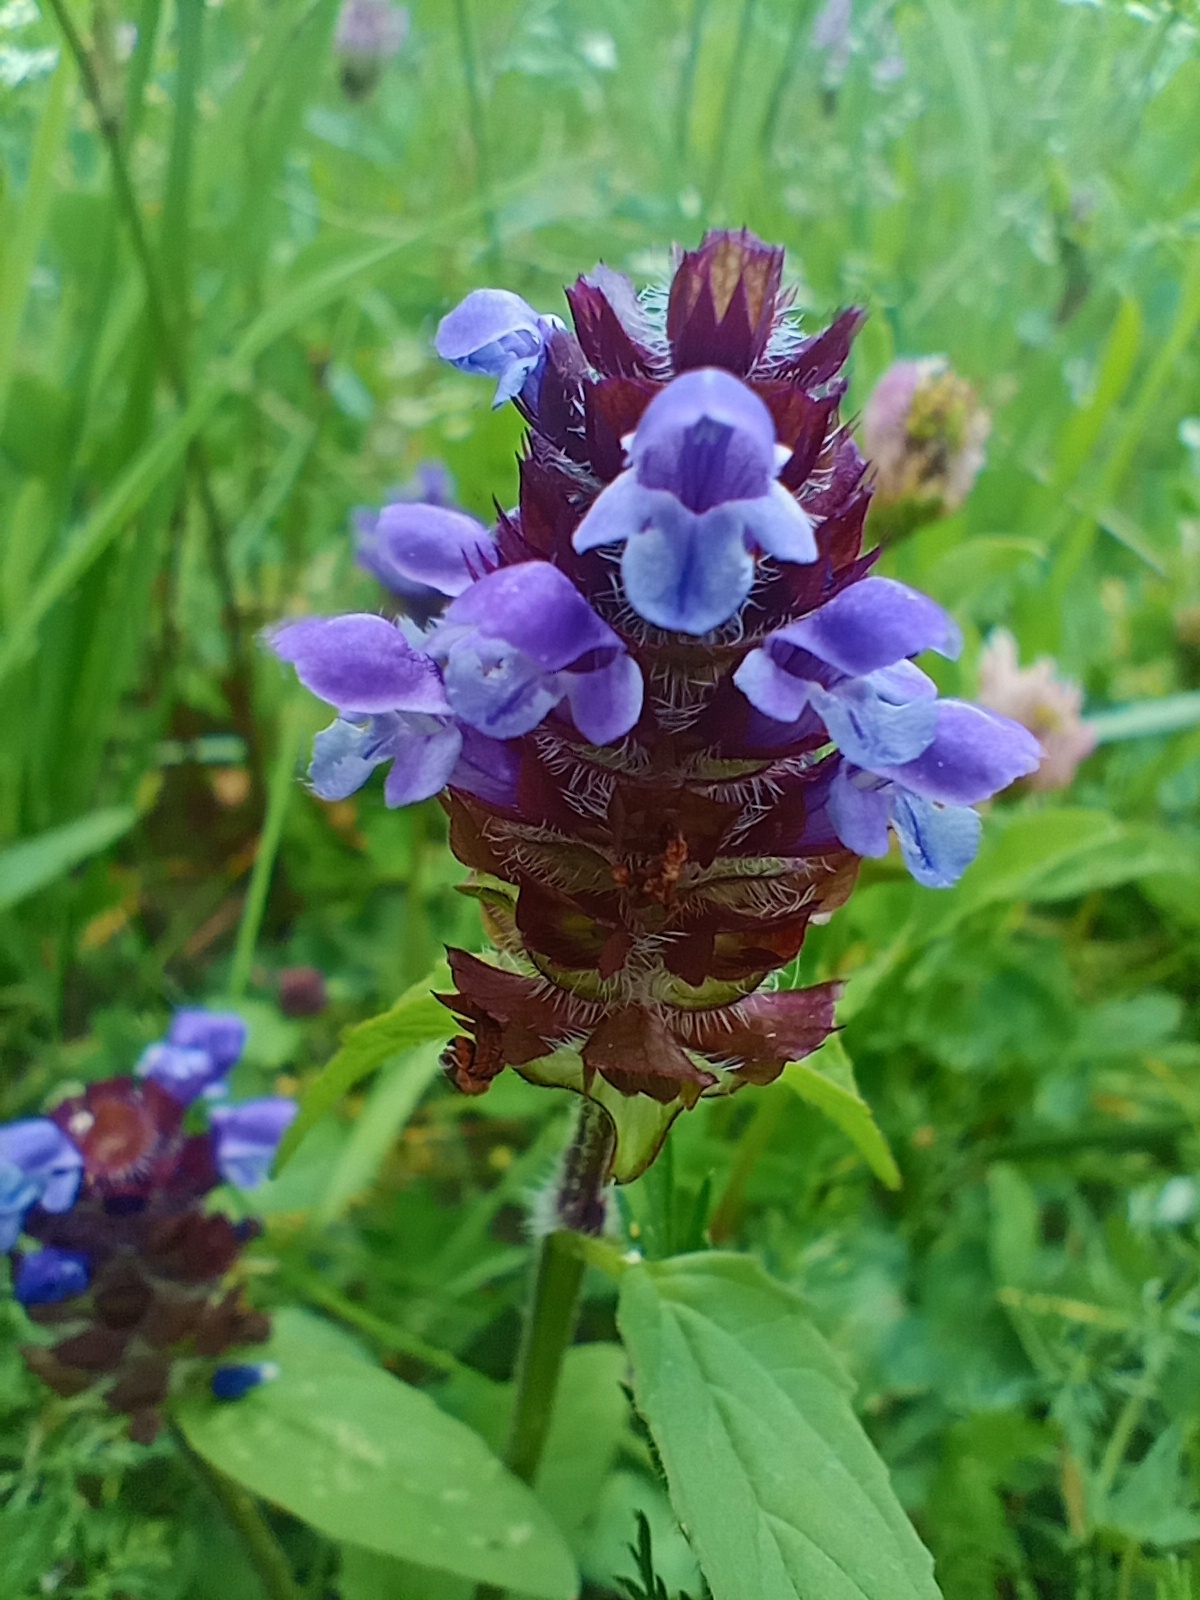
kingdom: Plantae
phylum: Tracheophyta
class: Magnoliopsida
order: Lamiales
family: Lamiaceae
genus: Prunella
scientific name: Prunella vulgaris
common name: Heal-all
